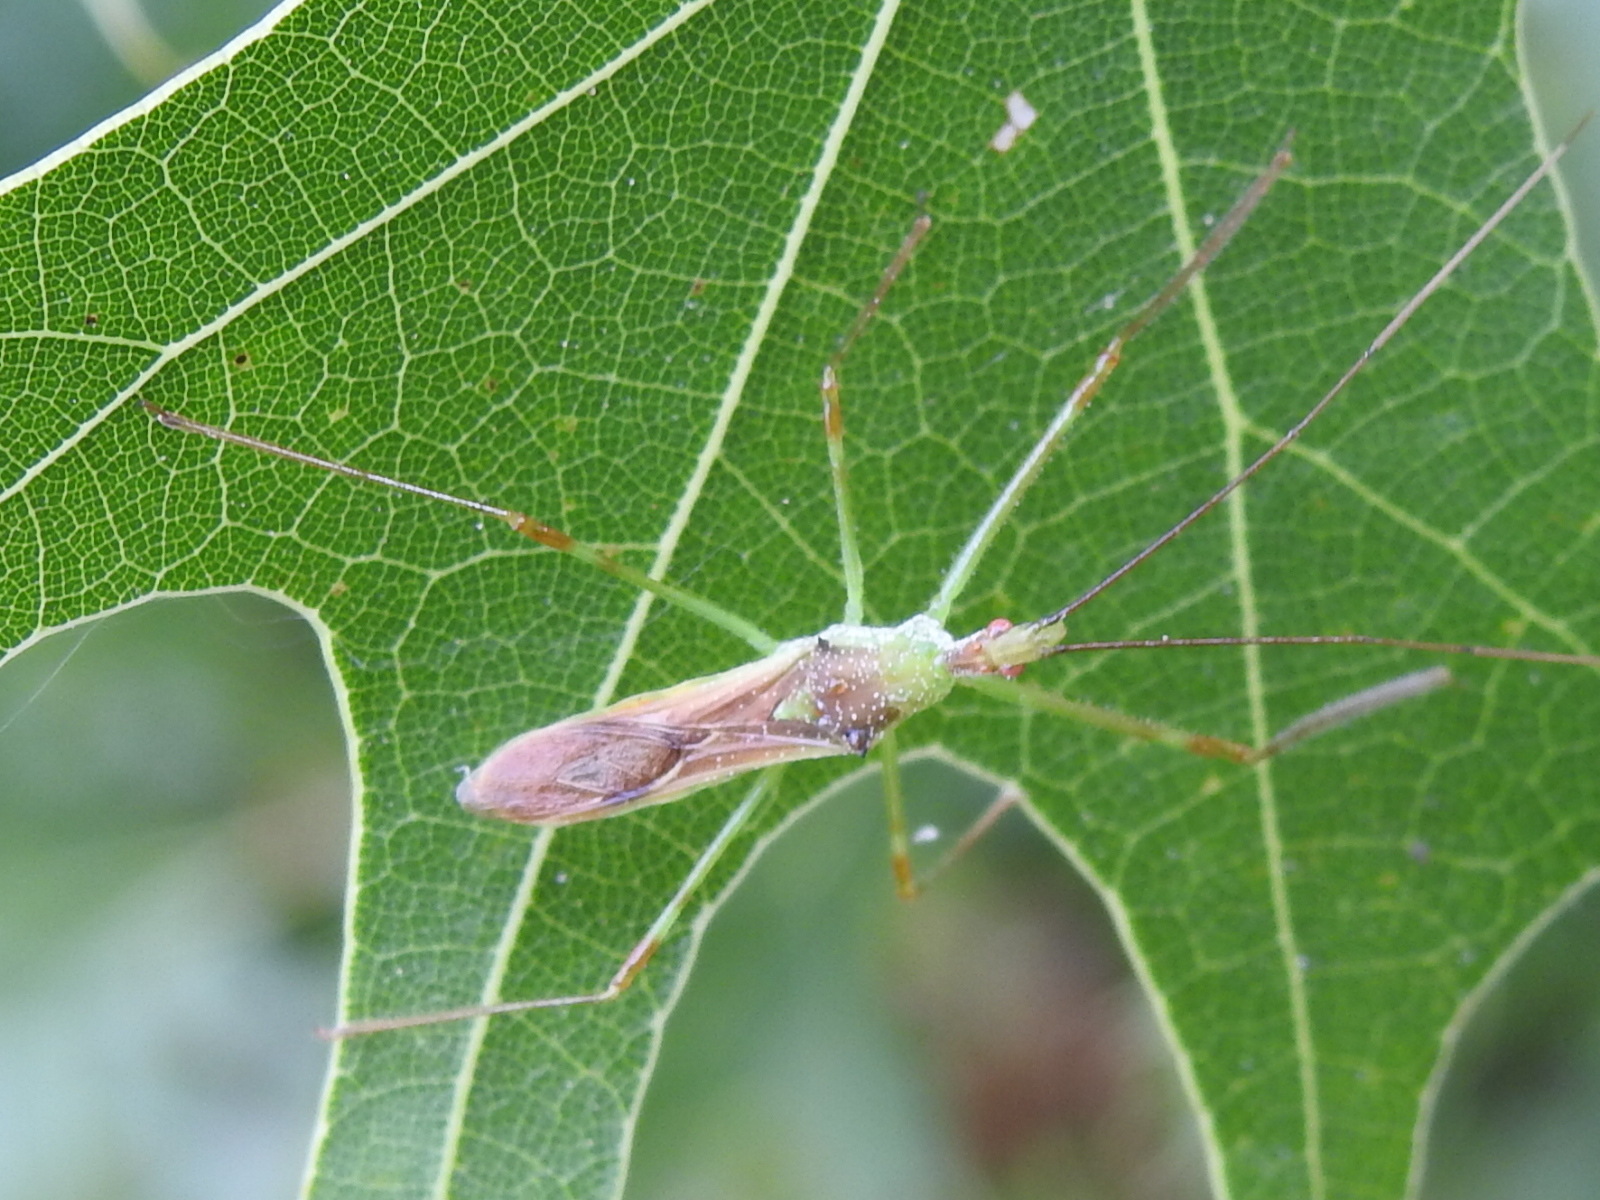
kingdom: Animalia
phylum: Arthropoda
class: Insecta
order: Hemiptera
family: Reduviidae
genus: Zelus
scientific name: Zelus luridus
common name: Pale green assassin bug
